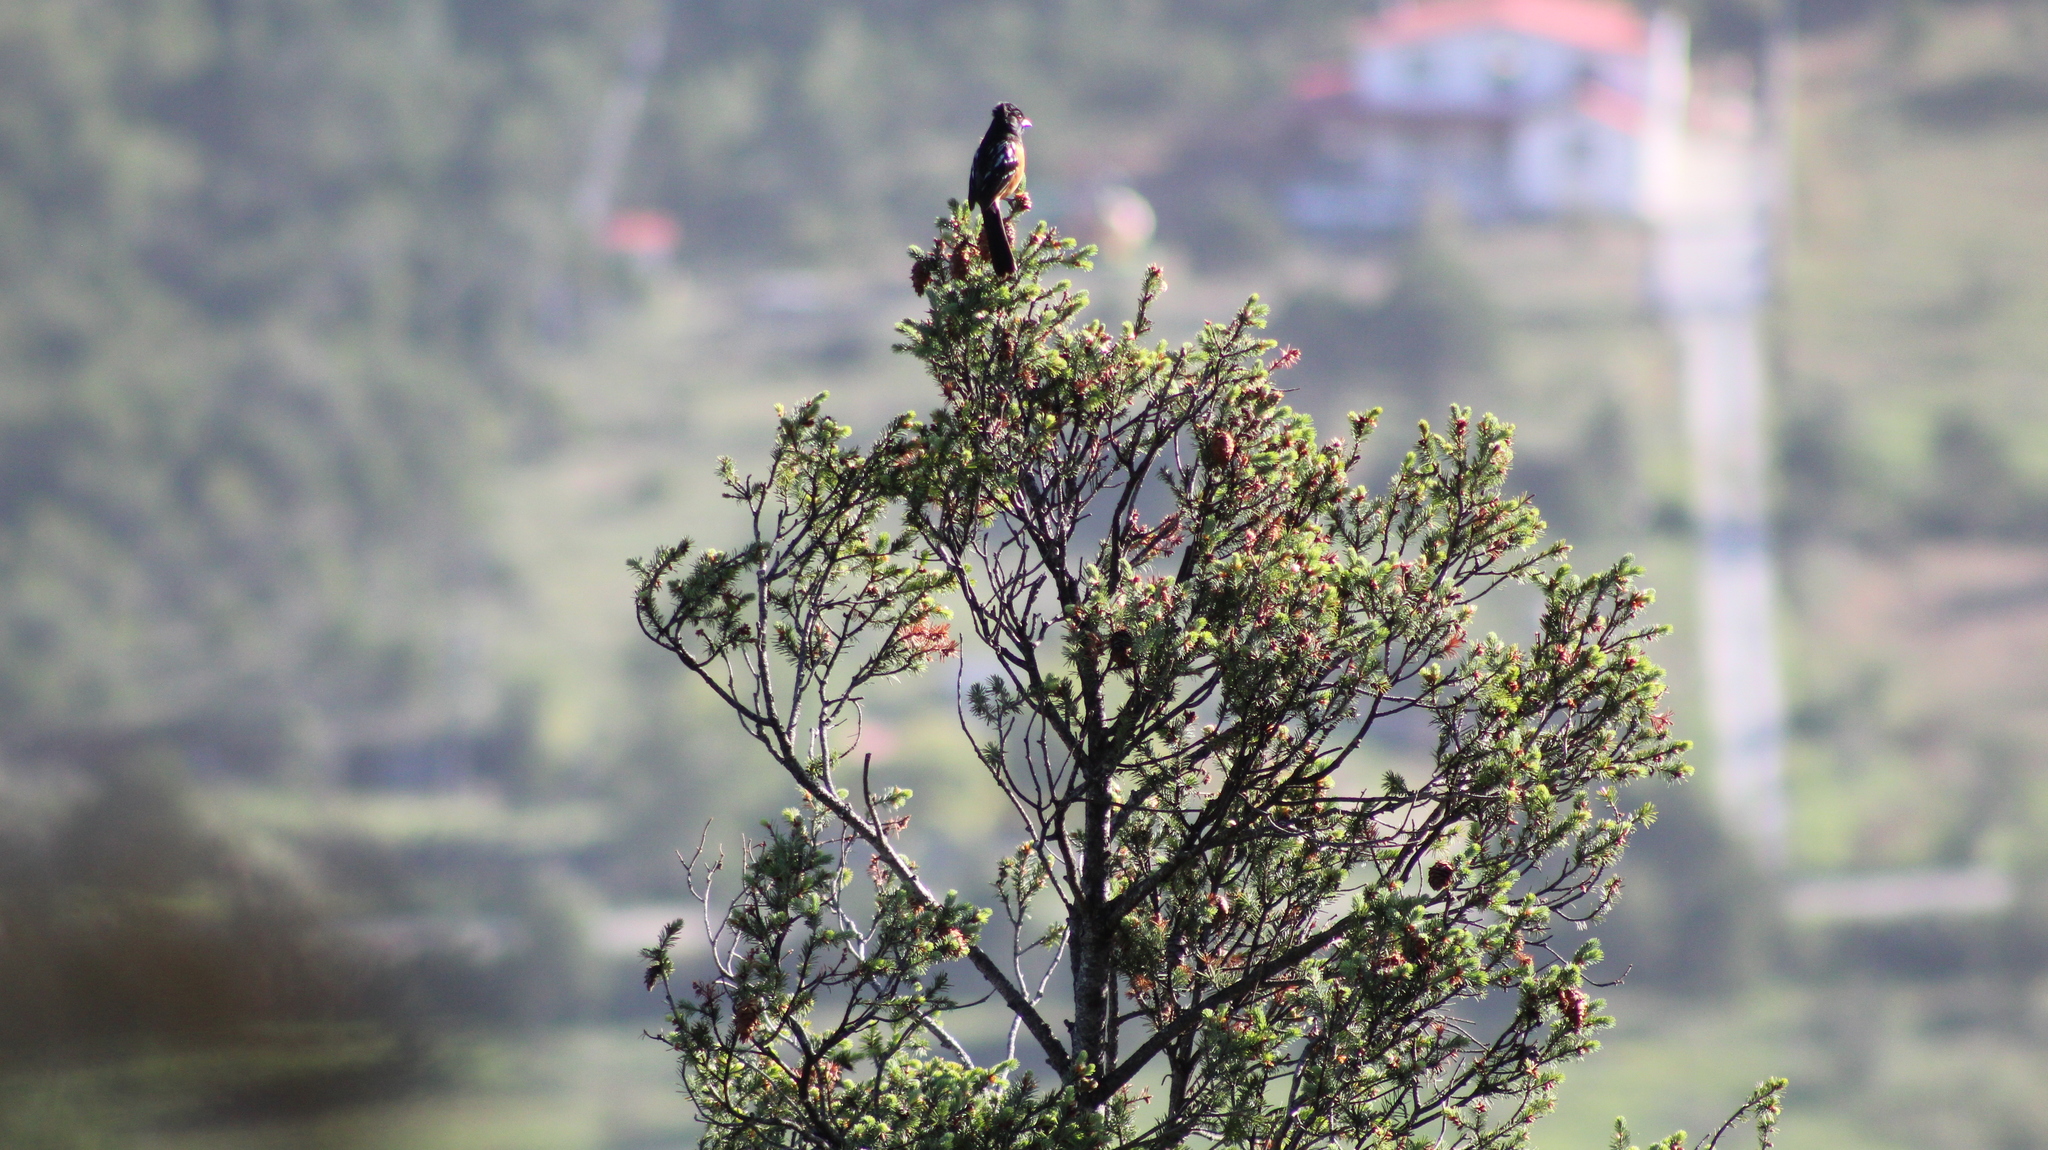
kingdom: Animalia
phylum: Chordata
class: Aves
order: Passeriformes
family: Passerellidae
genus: Pipilo
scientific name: Pipilo maculatus
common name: Spotted towhee
